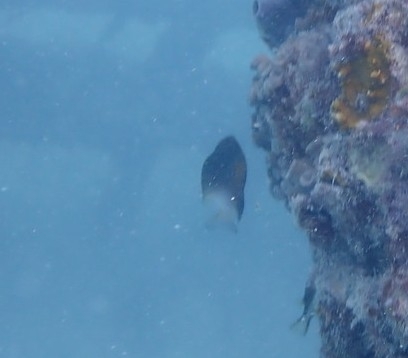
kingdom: Animalia
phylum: Chordata
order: Perciformes
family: Pomacentridae
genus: Stegastes
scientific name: Stegastes partitus
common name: Bicolor damselfish
